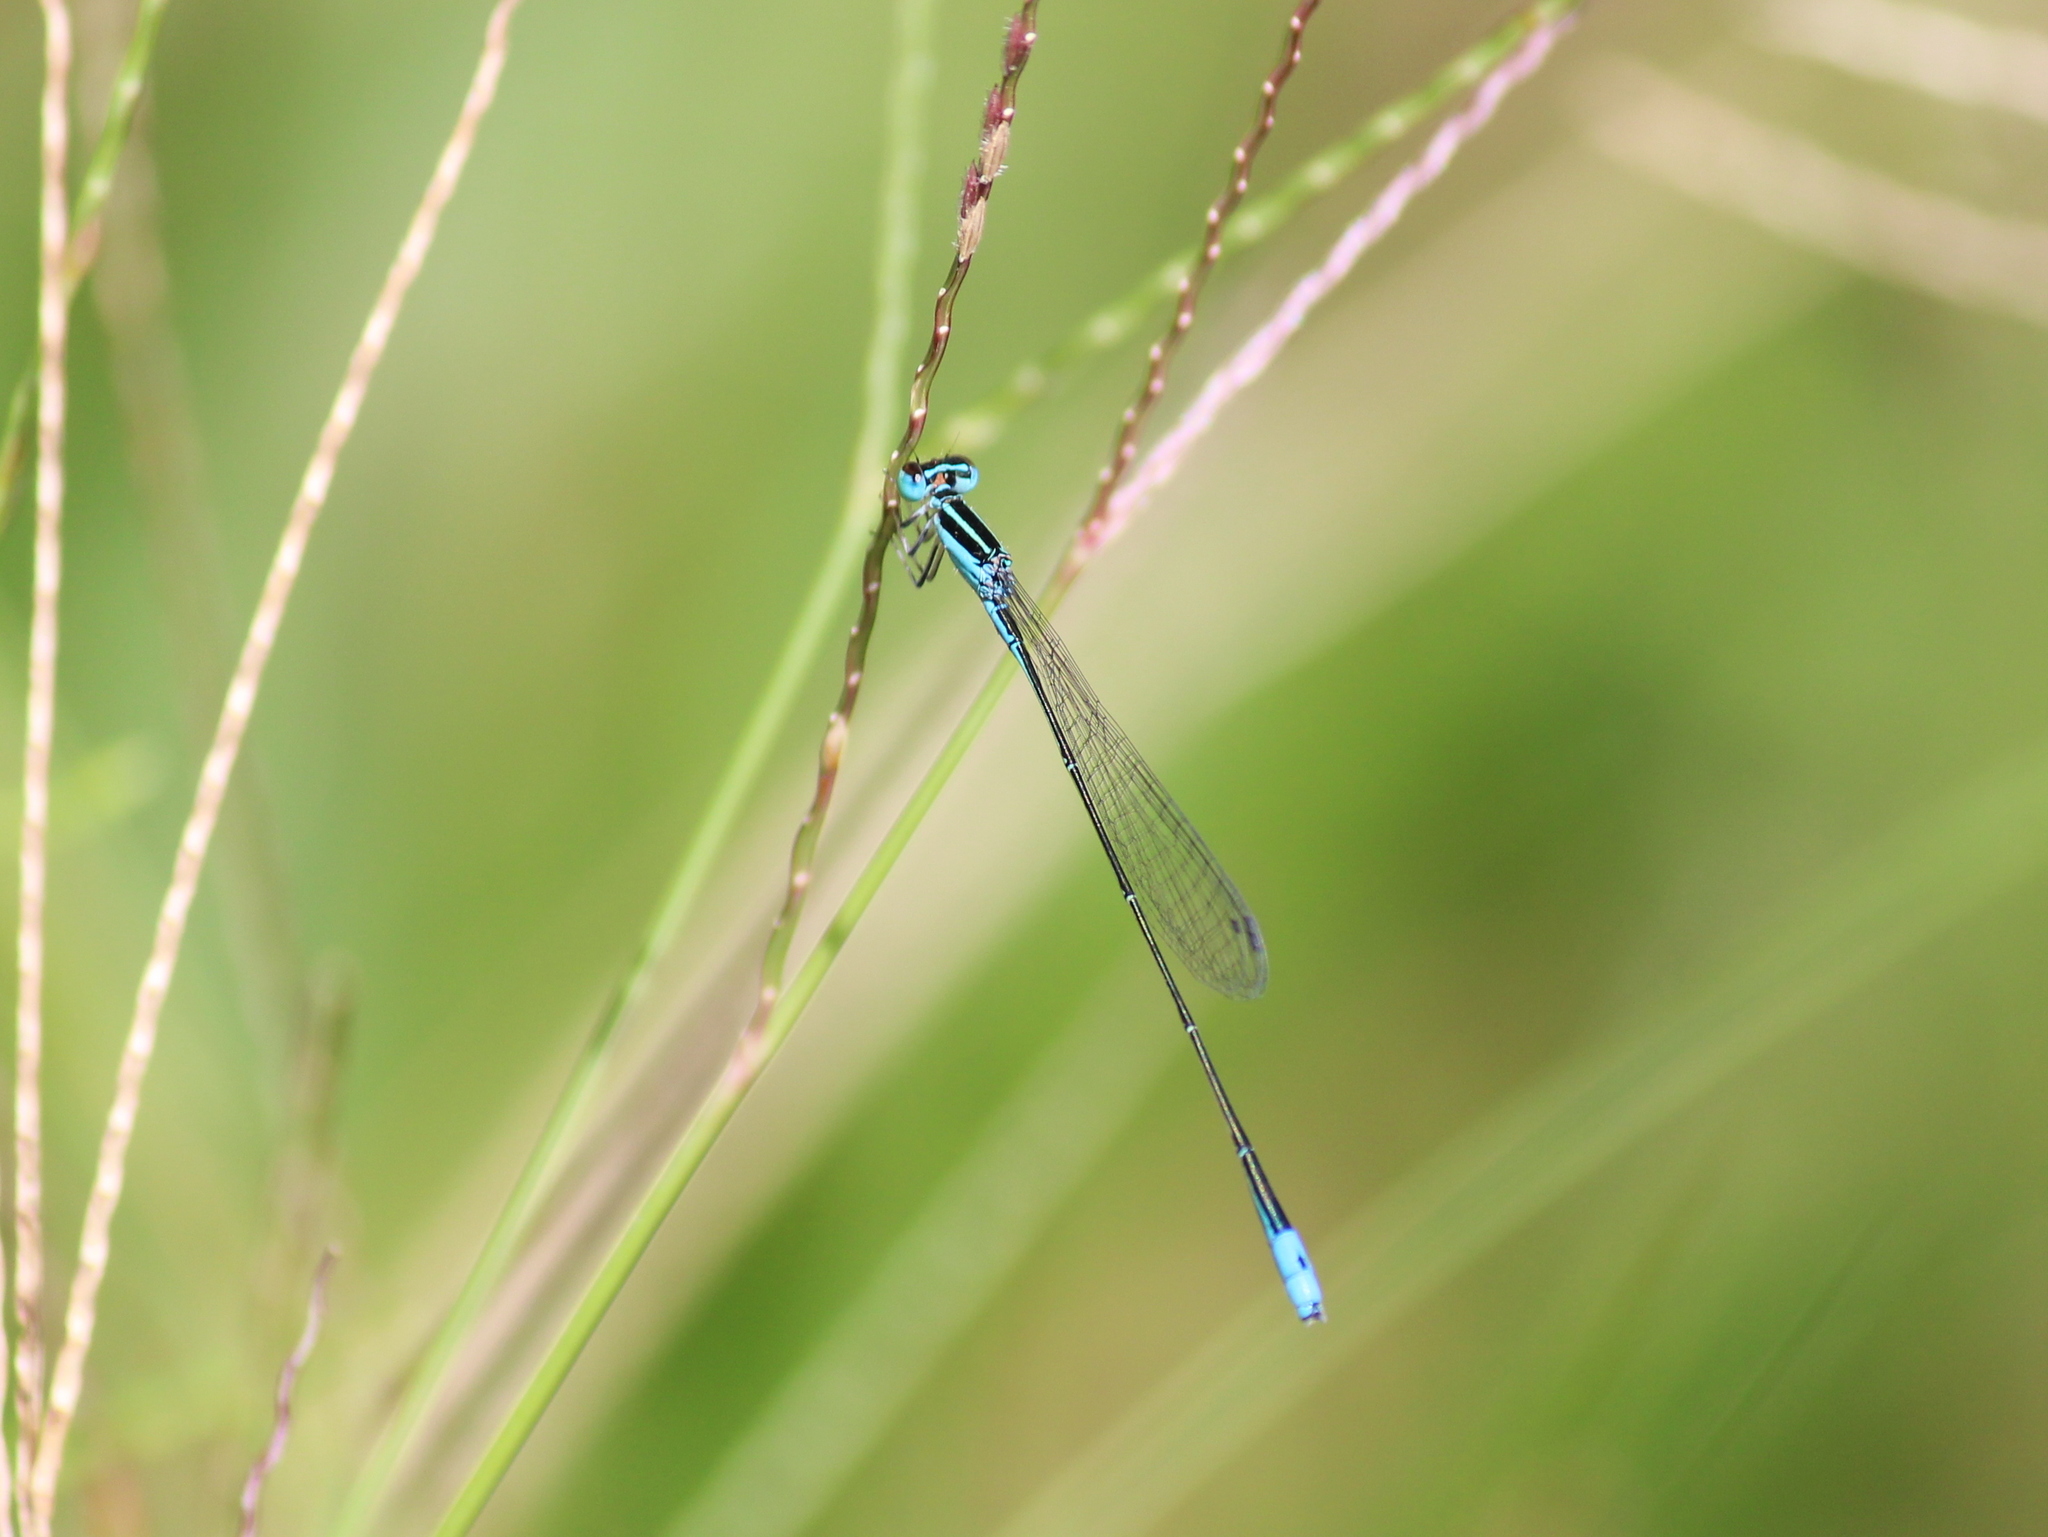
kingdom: Animalia
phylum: Arthropoda
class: Insecta
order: Odonata
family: Coenagrionidae
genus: Aciagrion
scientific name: Aciagrion occidentale
